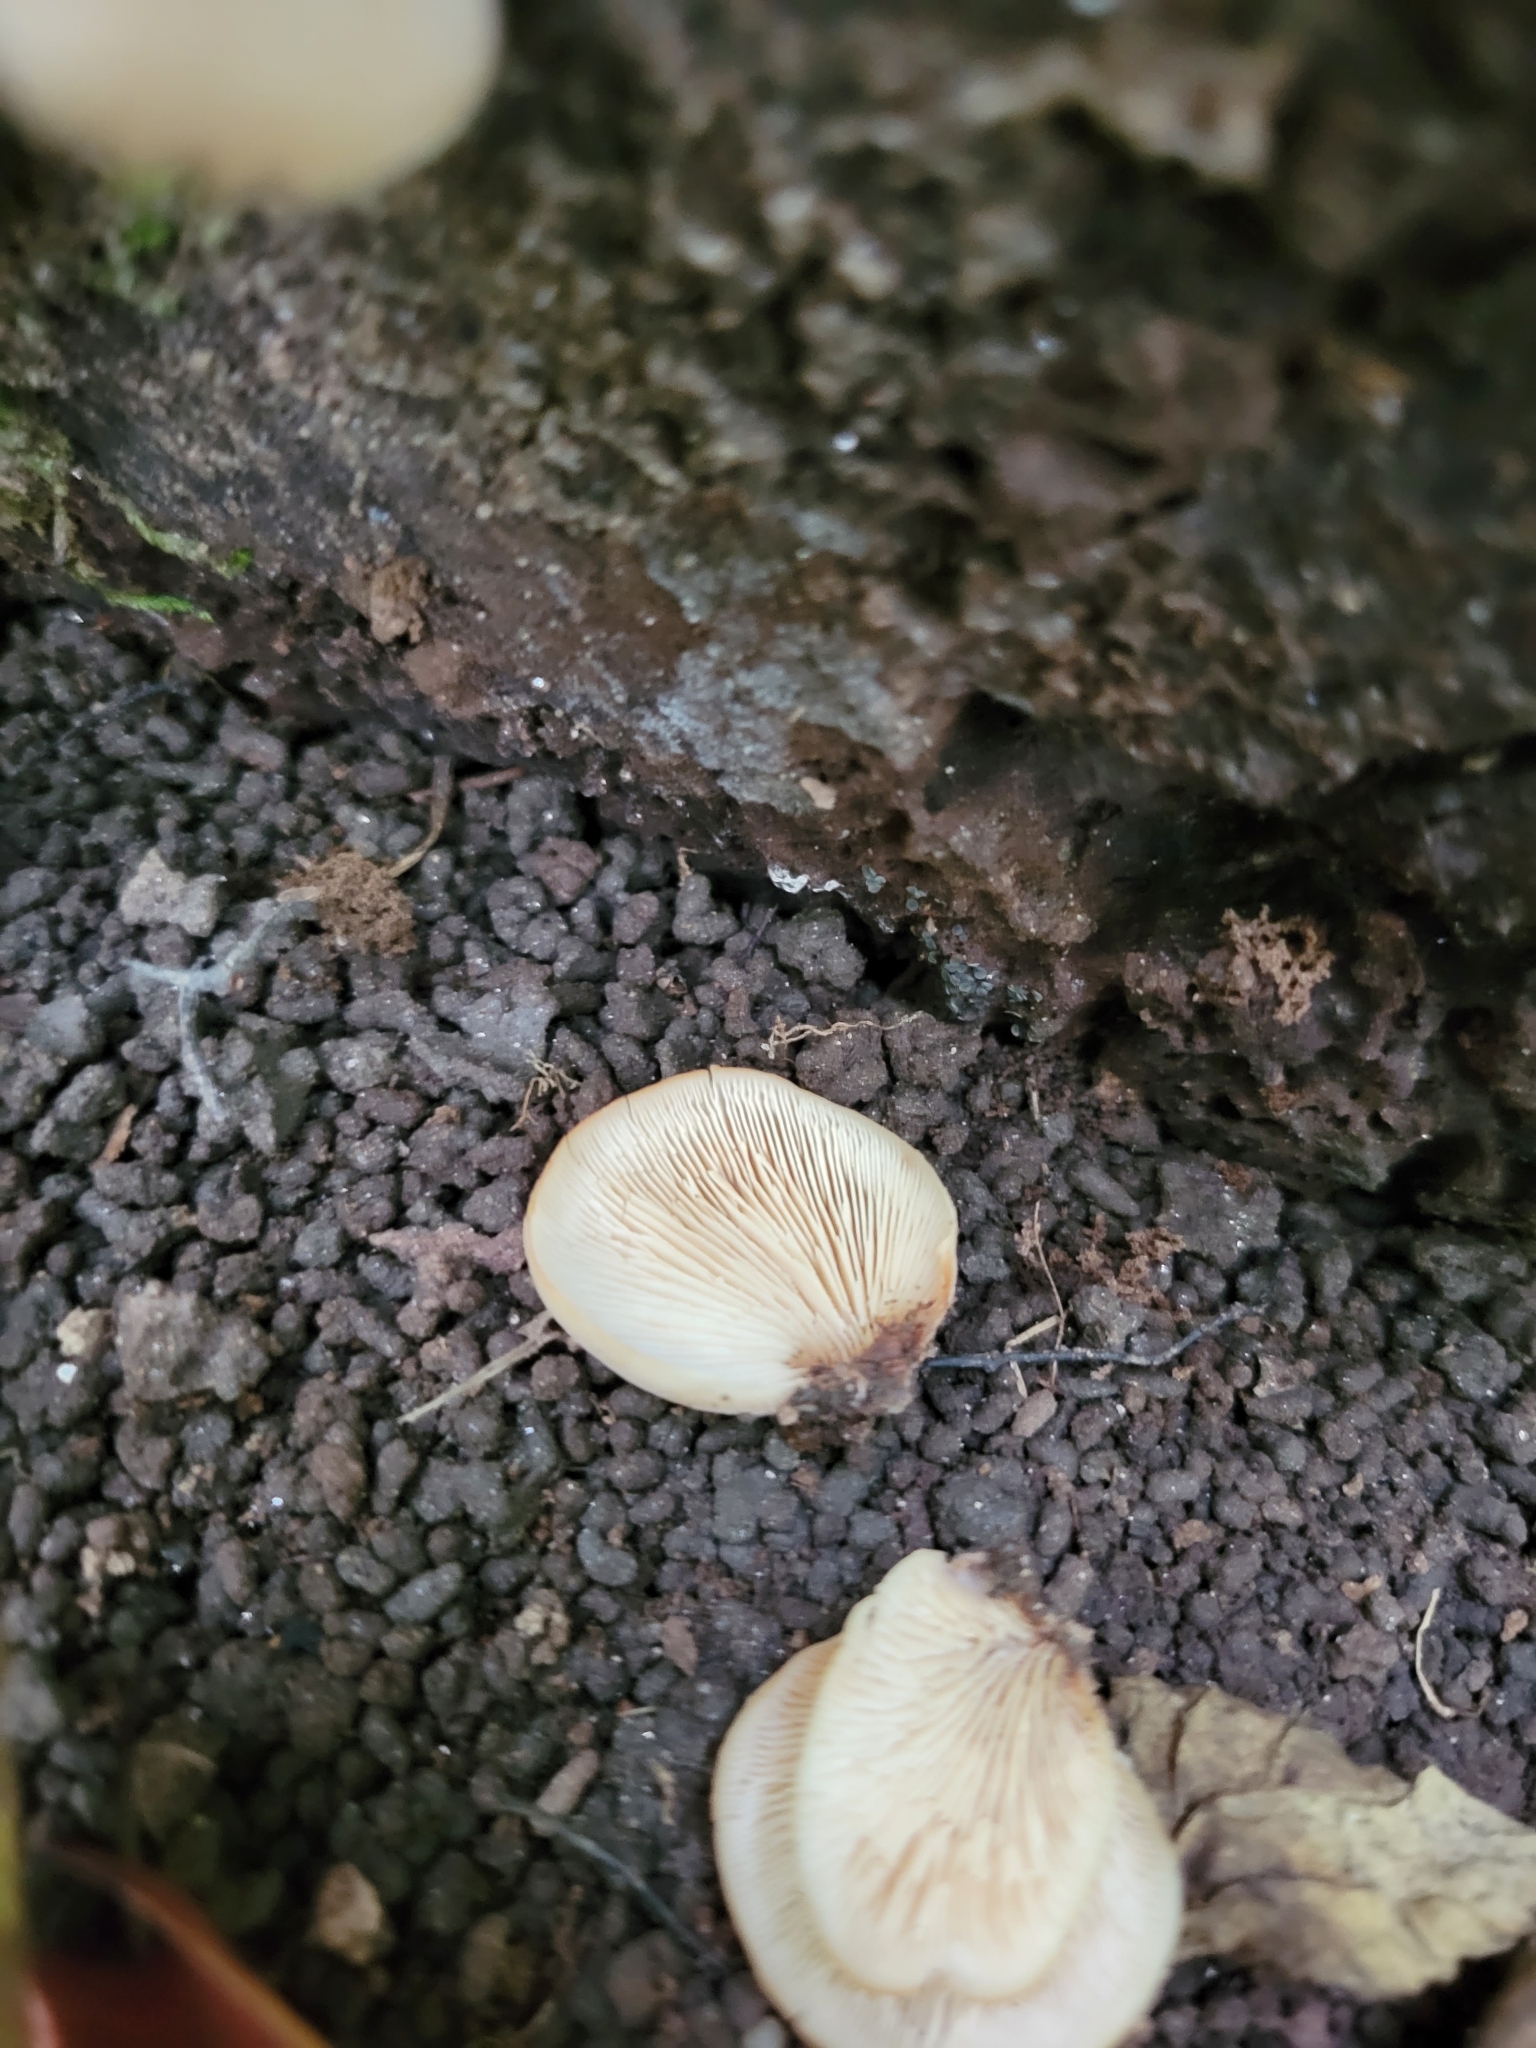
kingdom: Fungi
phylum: Basidiomycota
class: Agaricomycetes
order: Agaricales
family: Crepidotaceae
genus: Crepidotus
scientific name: Crepidotus applanatus
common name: Flat crep
